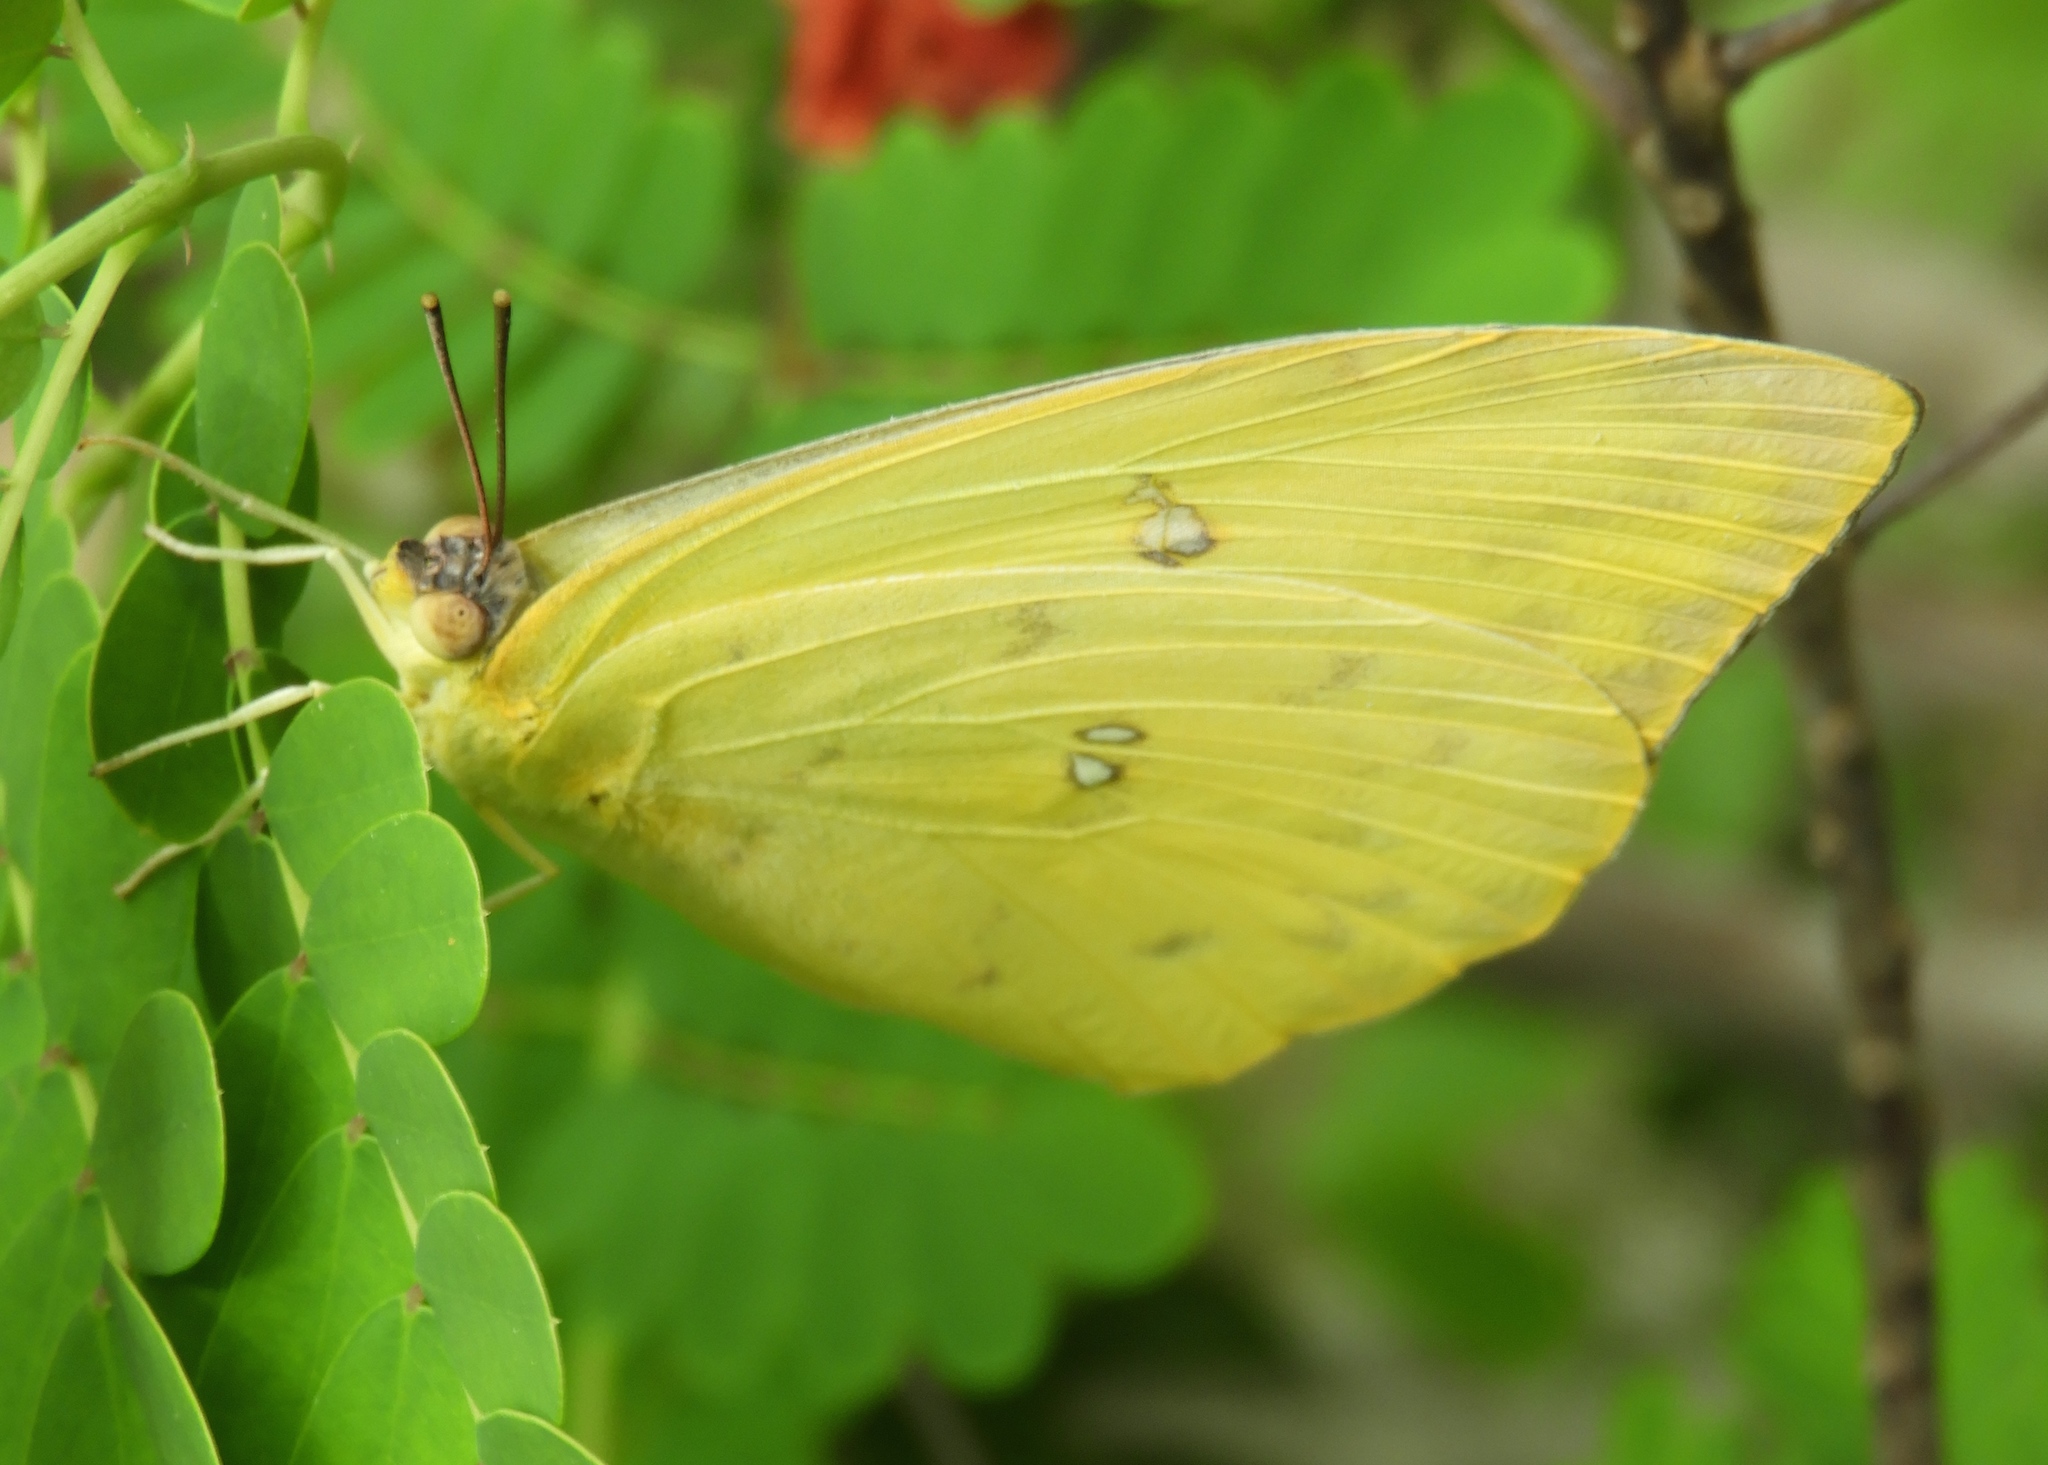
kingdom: Animalia
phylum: Arthropoda
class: Insecta
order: Lepidoptera
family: Pieridae
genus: Phoebis
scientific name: Phoebis sennae
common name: Cloudless sulphur
